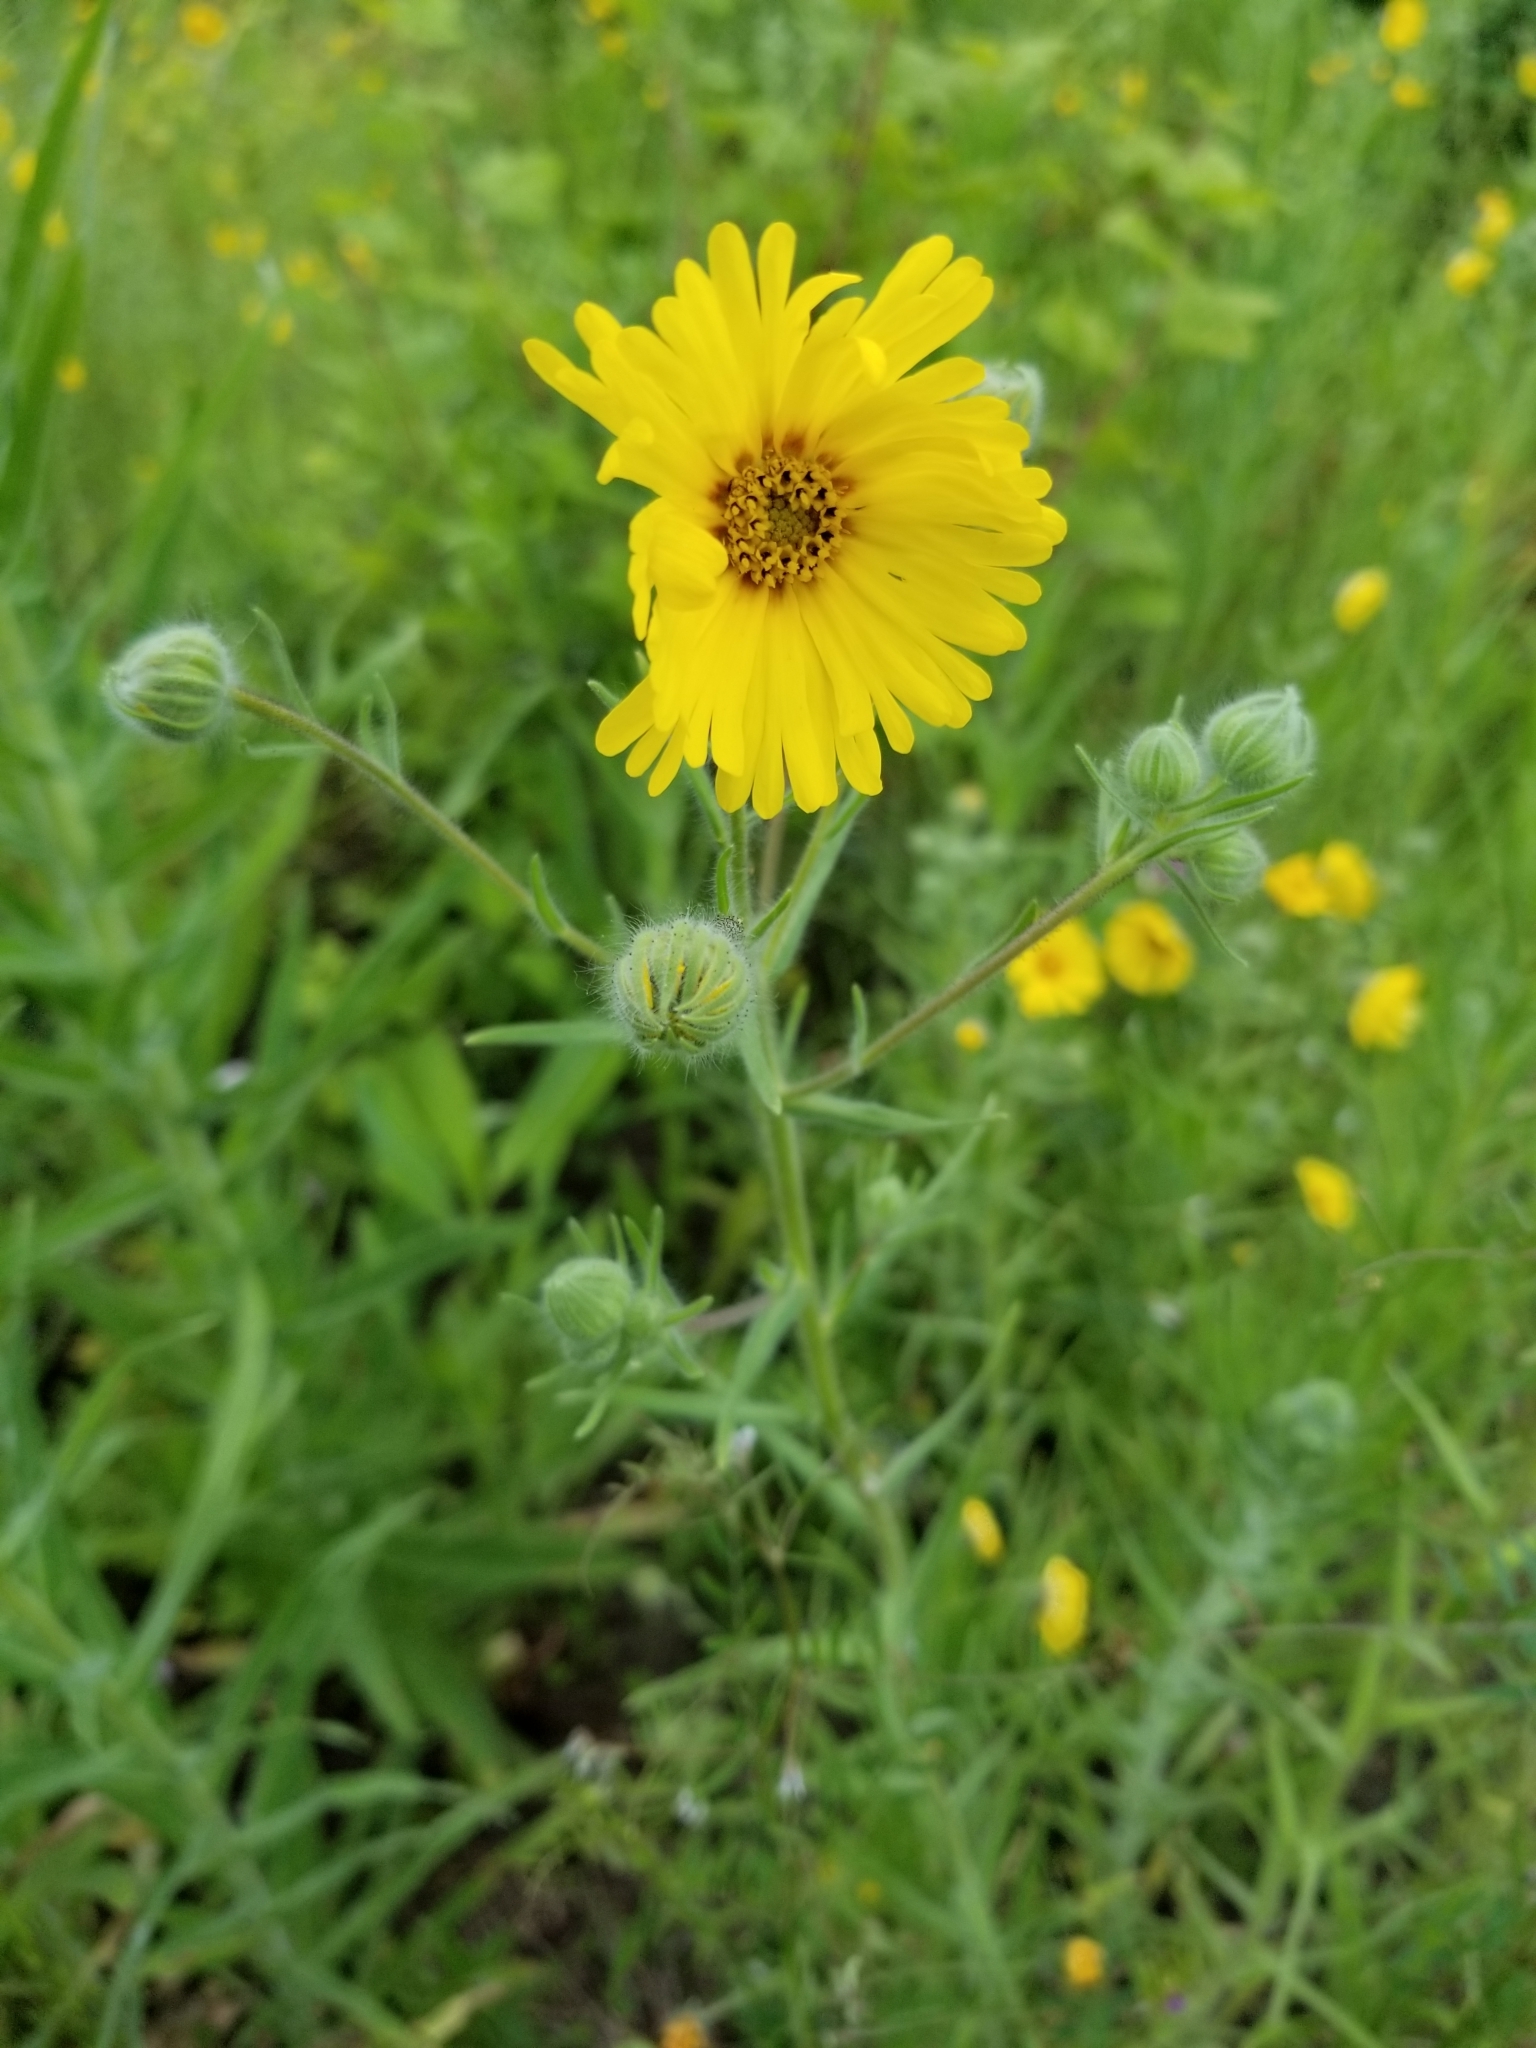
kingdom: Plantae
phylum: Tracheophyta
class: Magnoliopsida
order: Asterales
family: Asteraceae
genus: Madia
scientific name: Madia elegans
